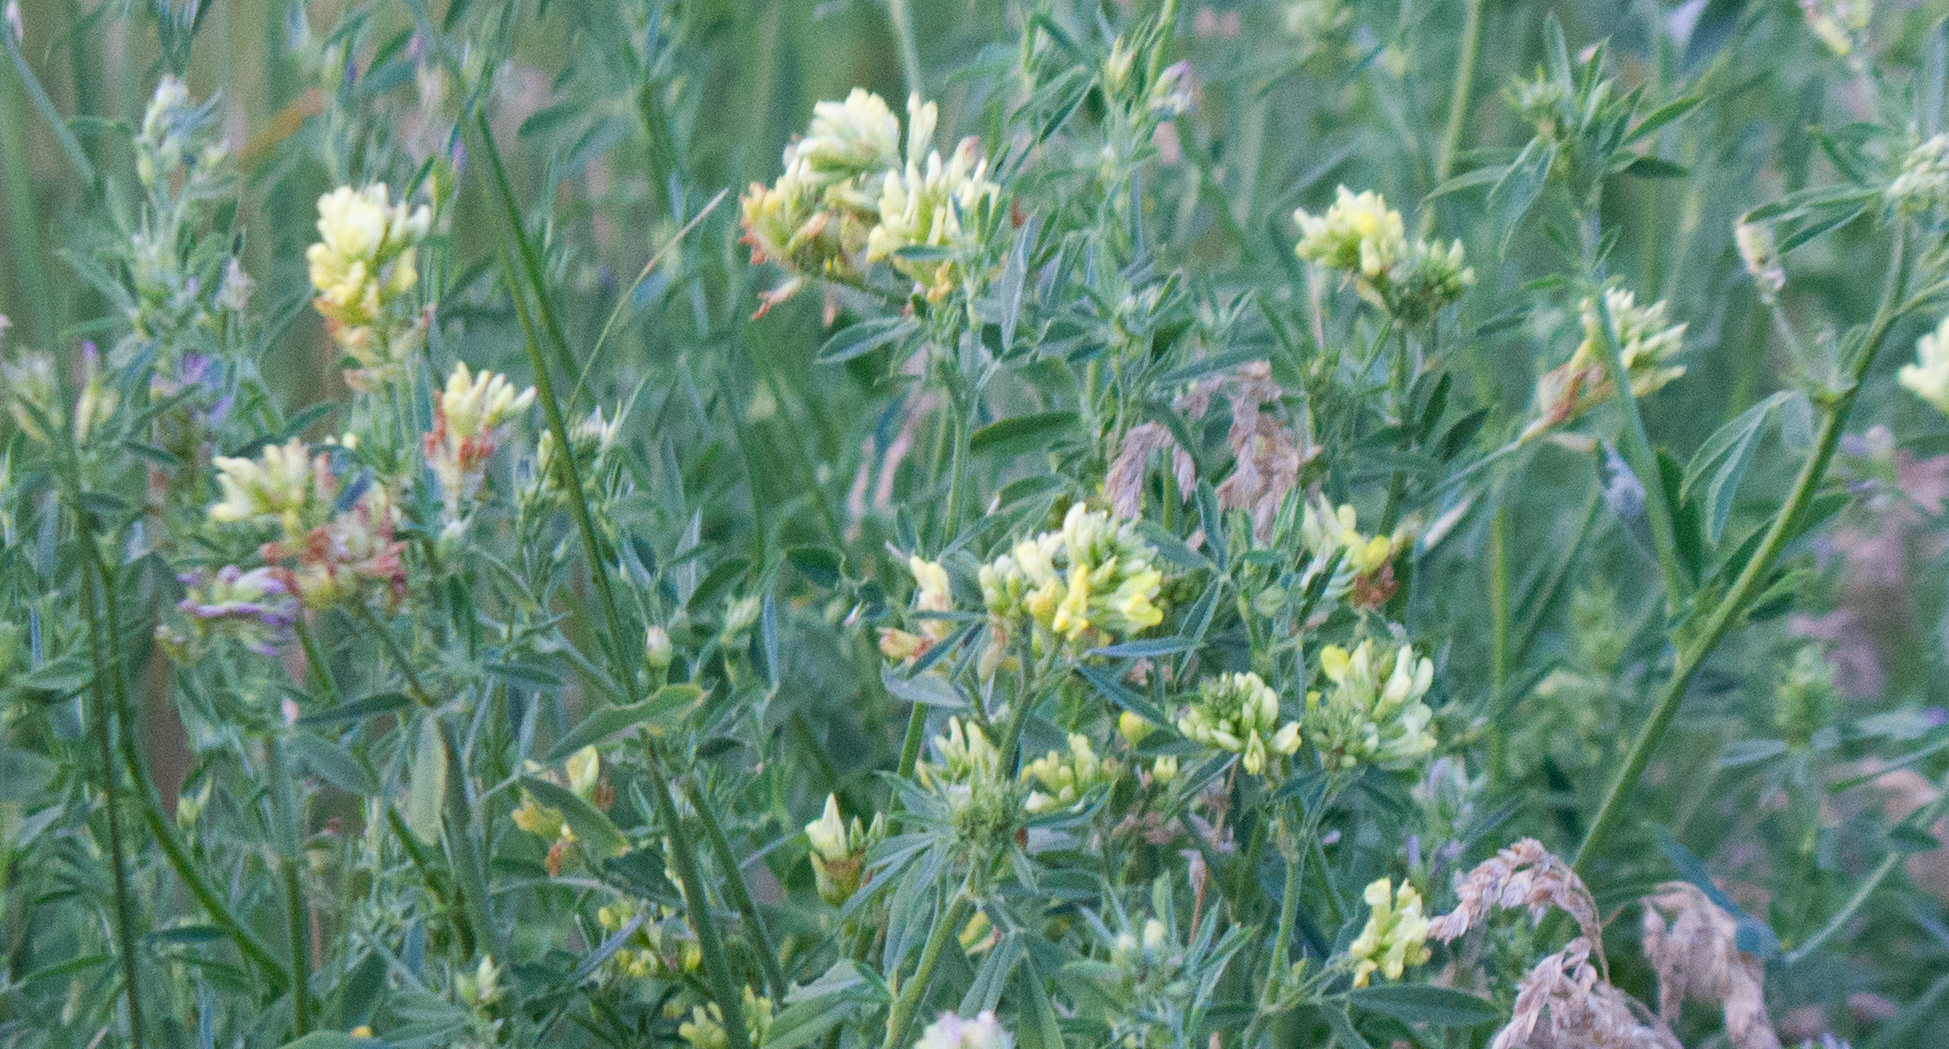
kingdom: Plantae
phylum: Tracheophyta
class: Magnoliopsida
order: Fabales
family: Fabaceae
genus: Medicago
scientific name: Medicago varia
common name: Sand lucerne
